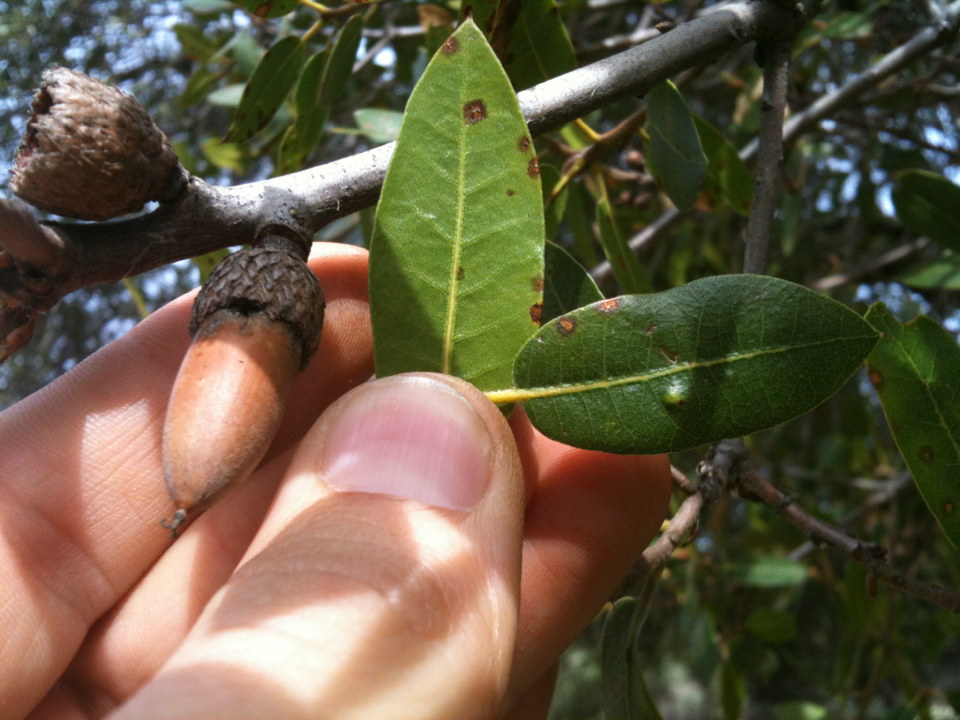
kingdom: Plantae
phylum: Tracheophyta
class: Magnoliopsida
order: Fagales
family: Fagaceae
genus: Quercus
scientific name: Quercus wislizeni
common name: Interior live oak
